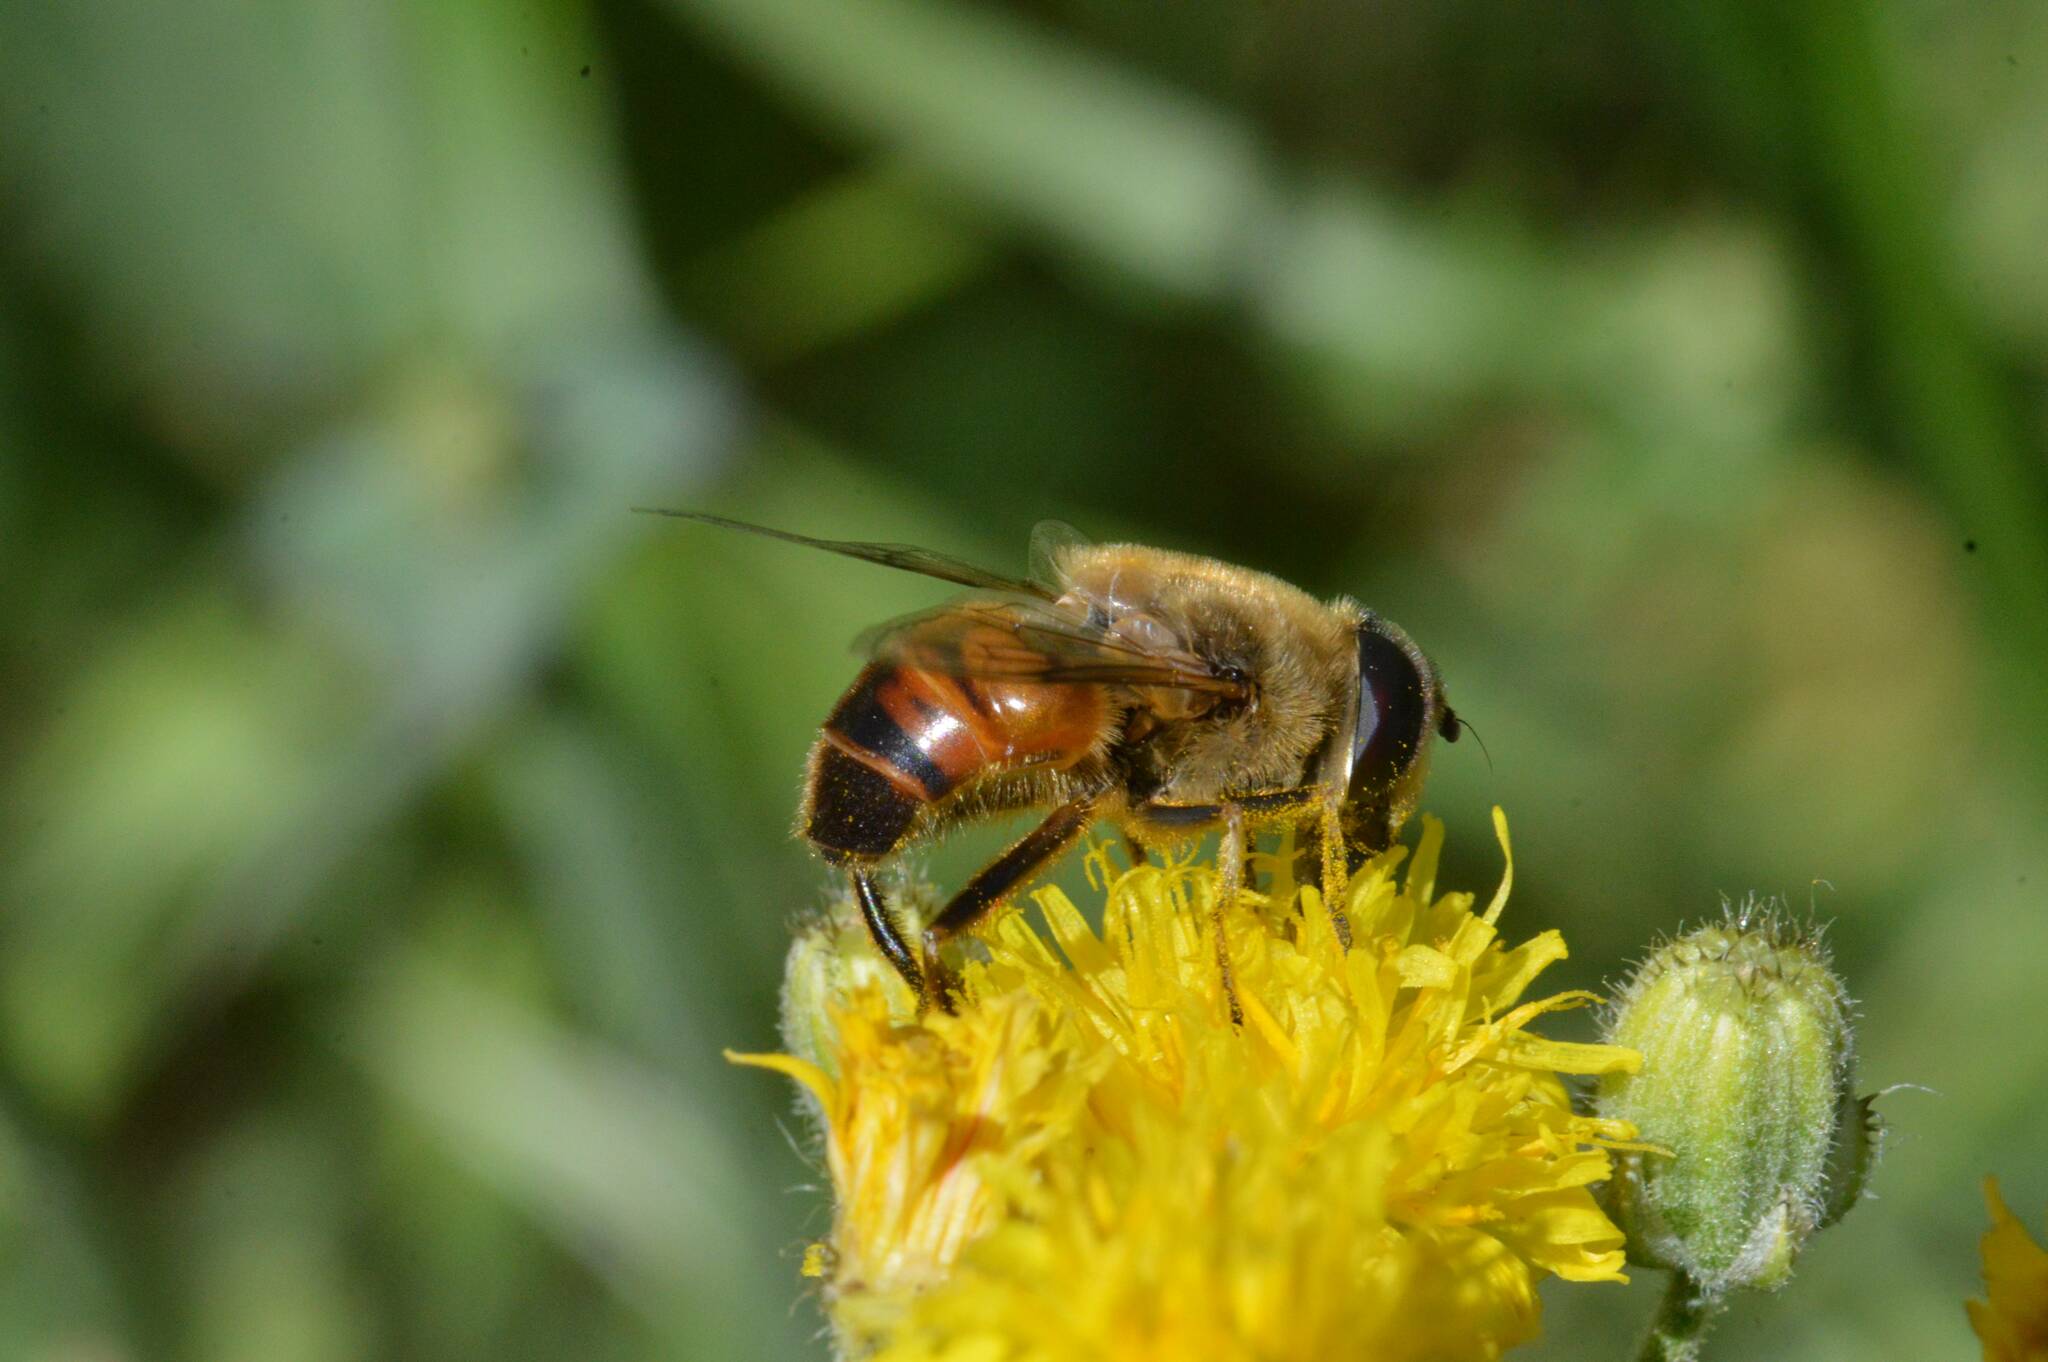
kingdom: Animalia
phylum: Arthropoda
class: Insecta
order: Diptera
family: Syrphidae
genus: Eristalis
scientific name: Eristalis tenax
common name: Drone fly
